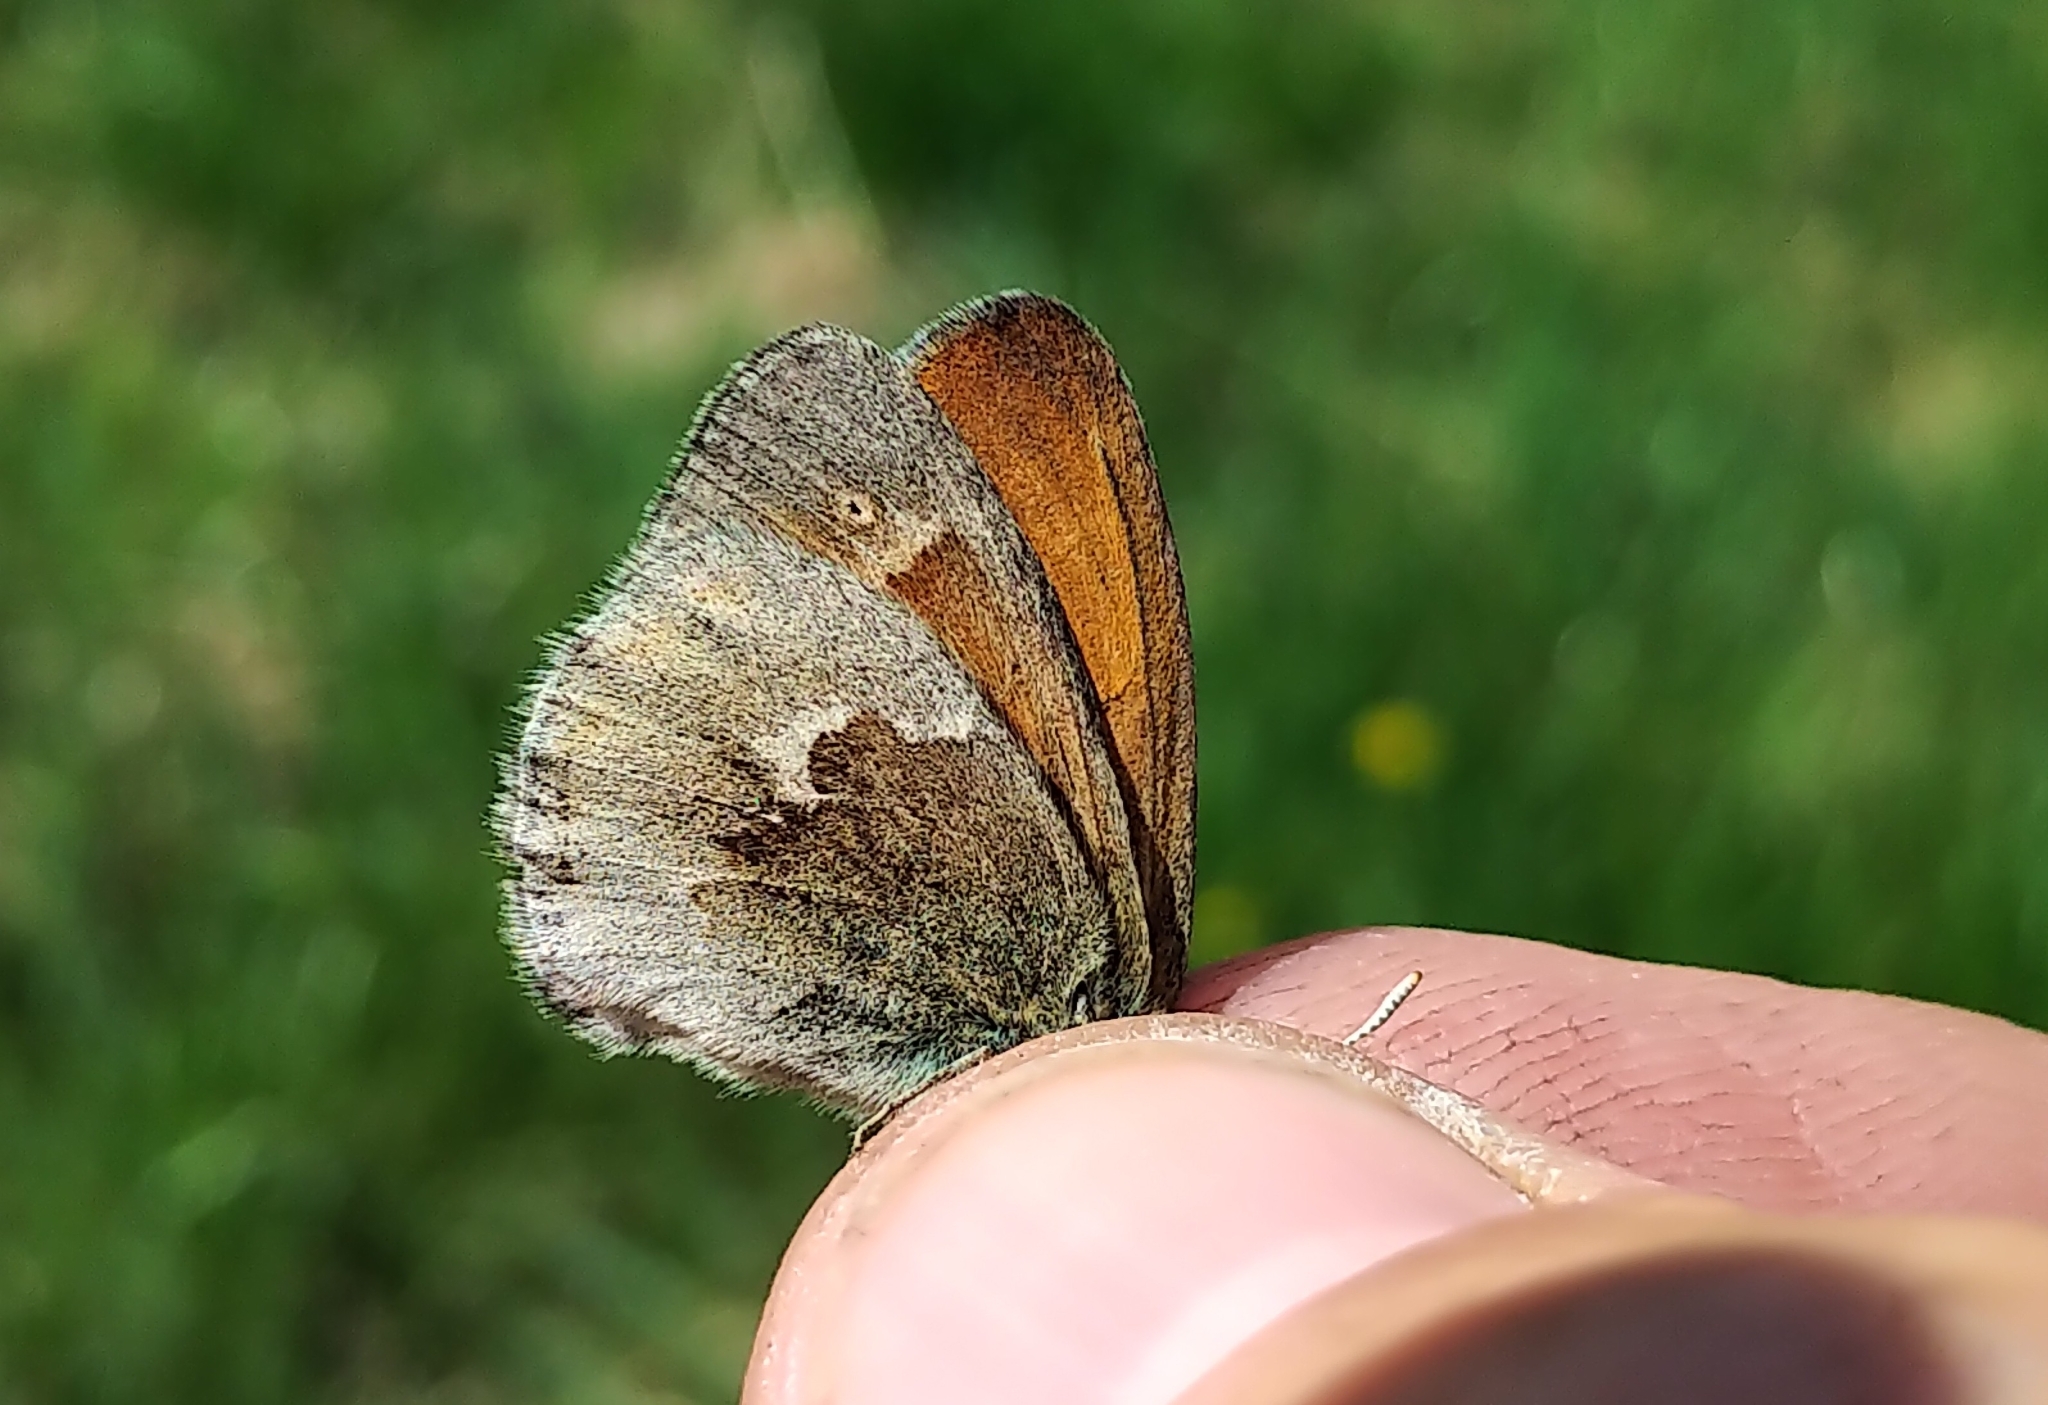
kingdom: Animalia
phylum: Arthropoda
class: Insecta
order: Lepidoptera
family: Nymphalidae
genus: Coenonympha
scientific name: Coenonympha california
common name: Common ringlet
